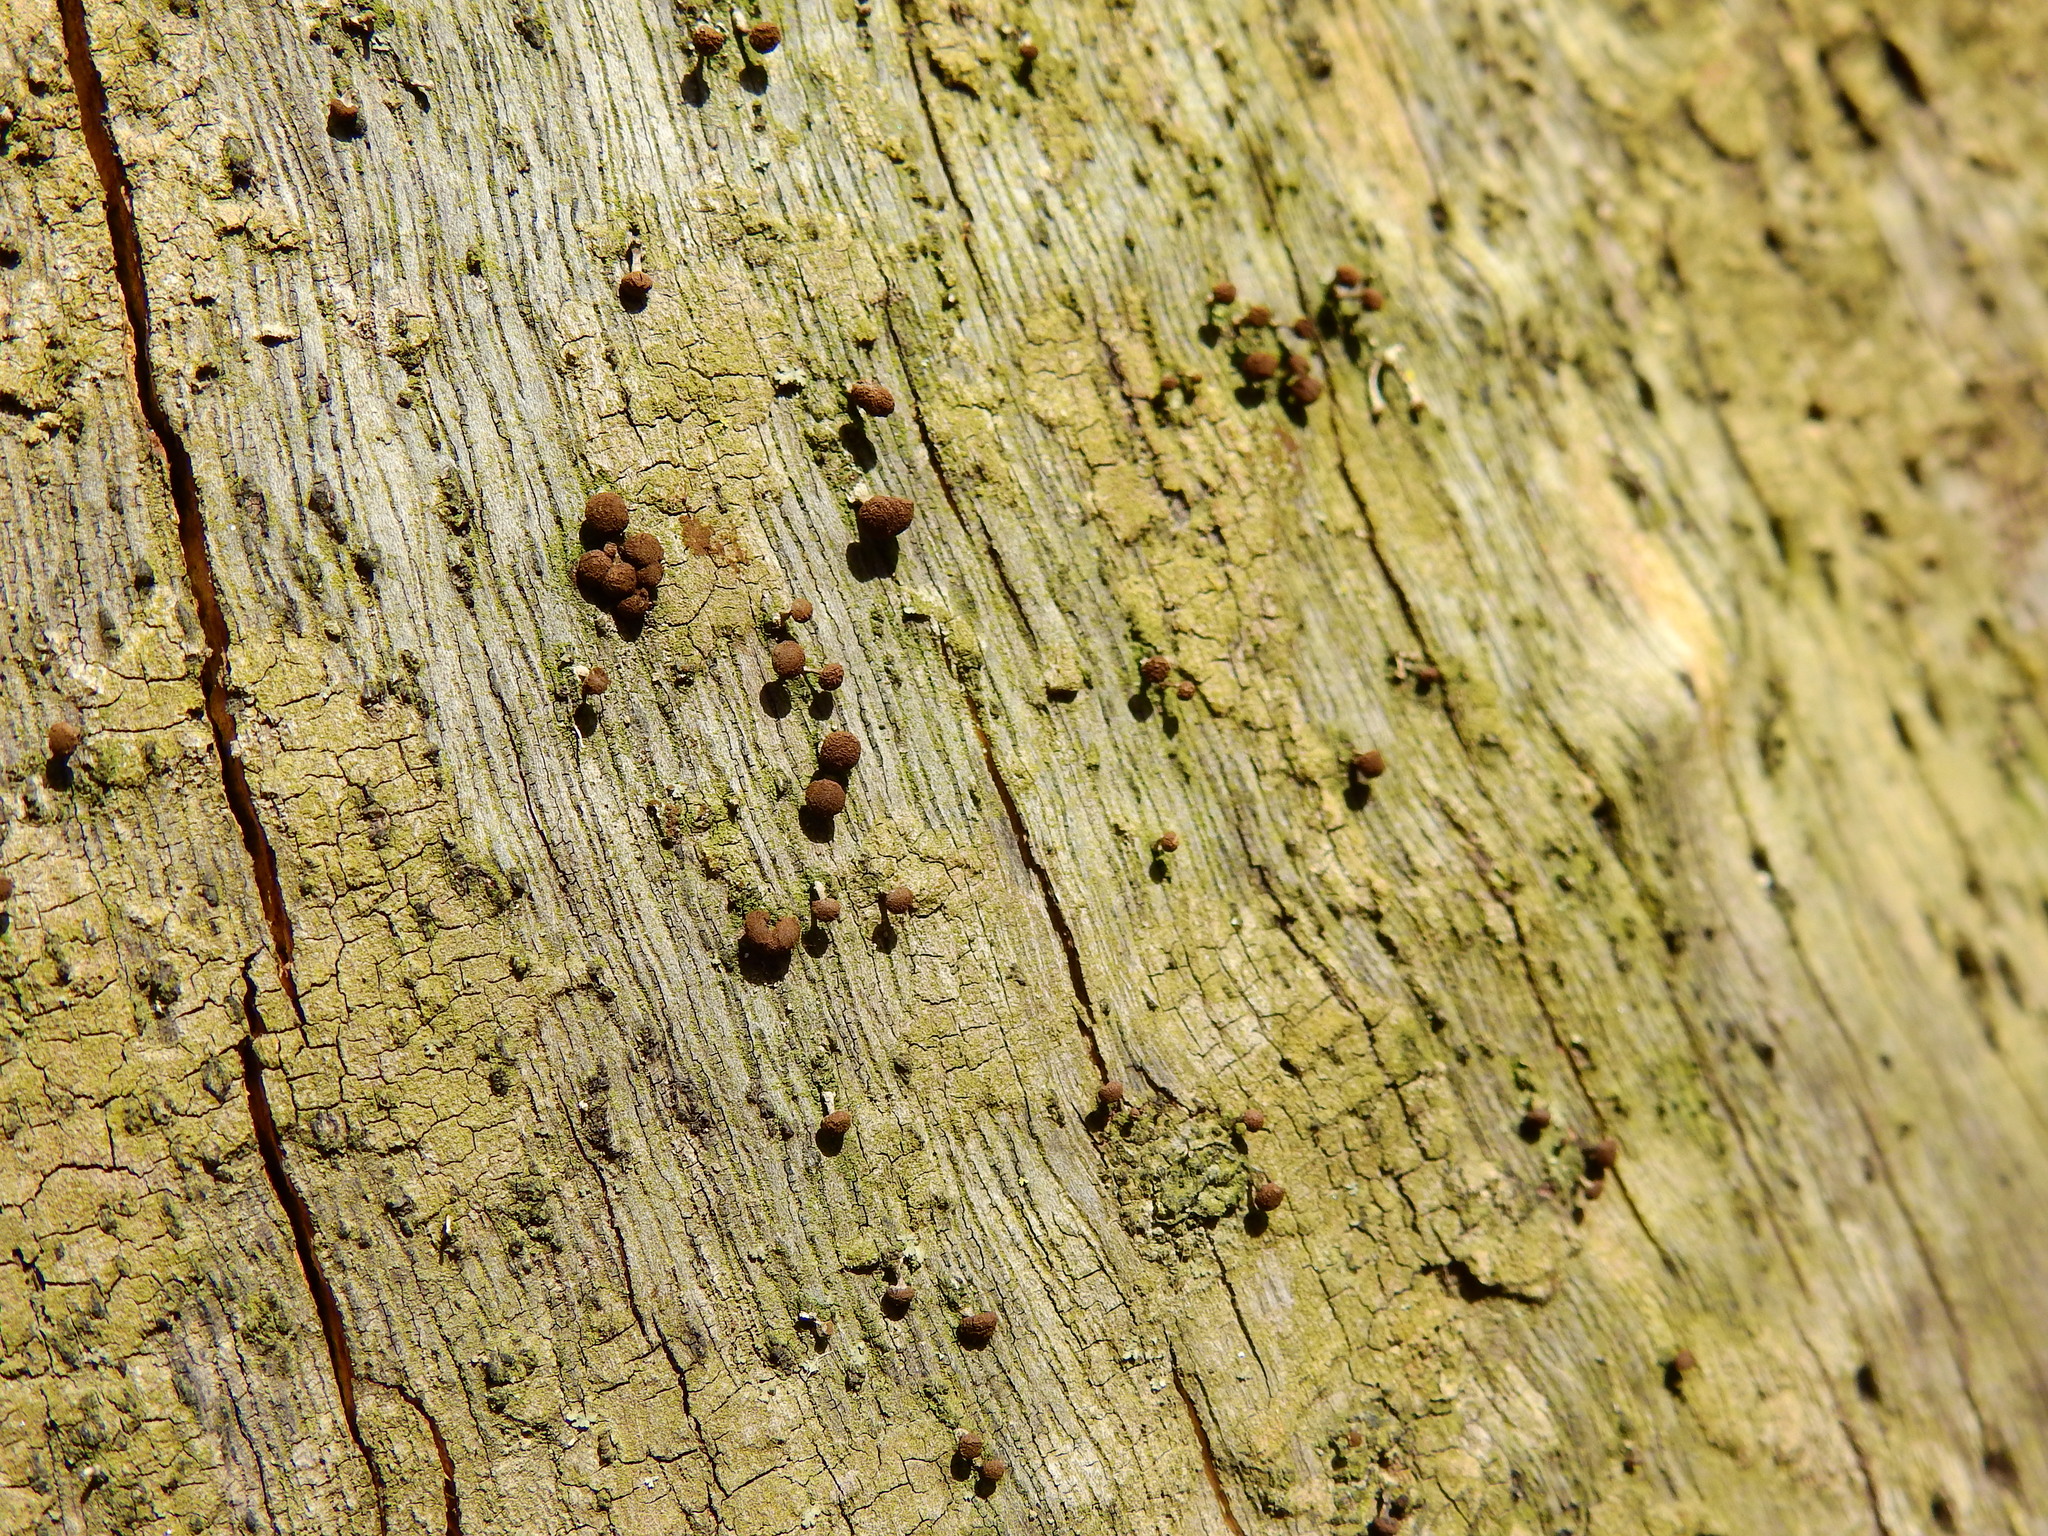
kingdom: Fungi
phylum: Basidiomycota
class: Atractiellomycetes
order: Atractiellales
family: Phleogenaceae
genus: Phleogena
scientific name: Phleogena faginea
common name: Fenugreek stalkball
